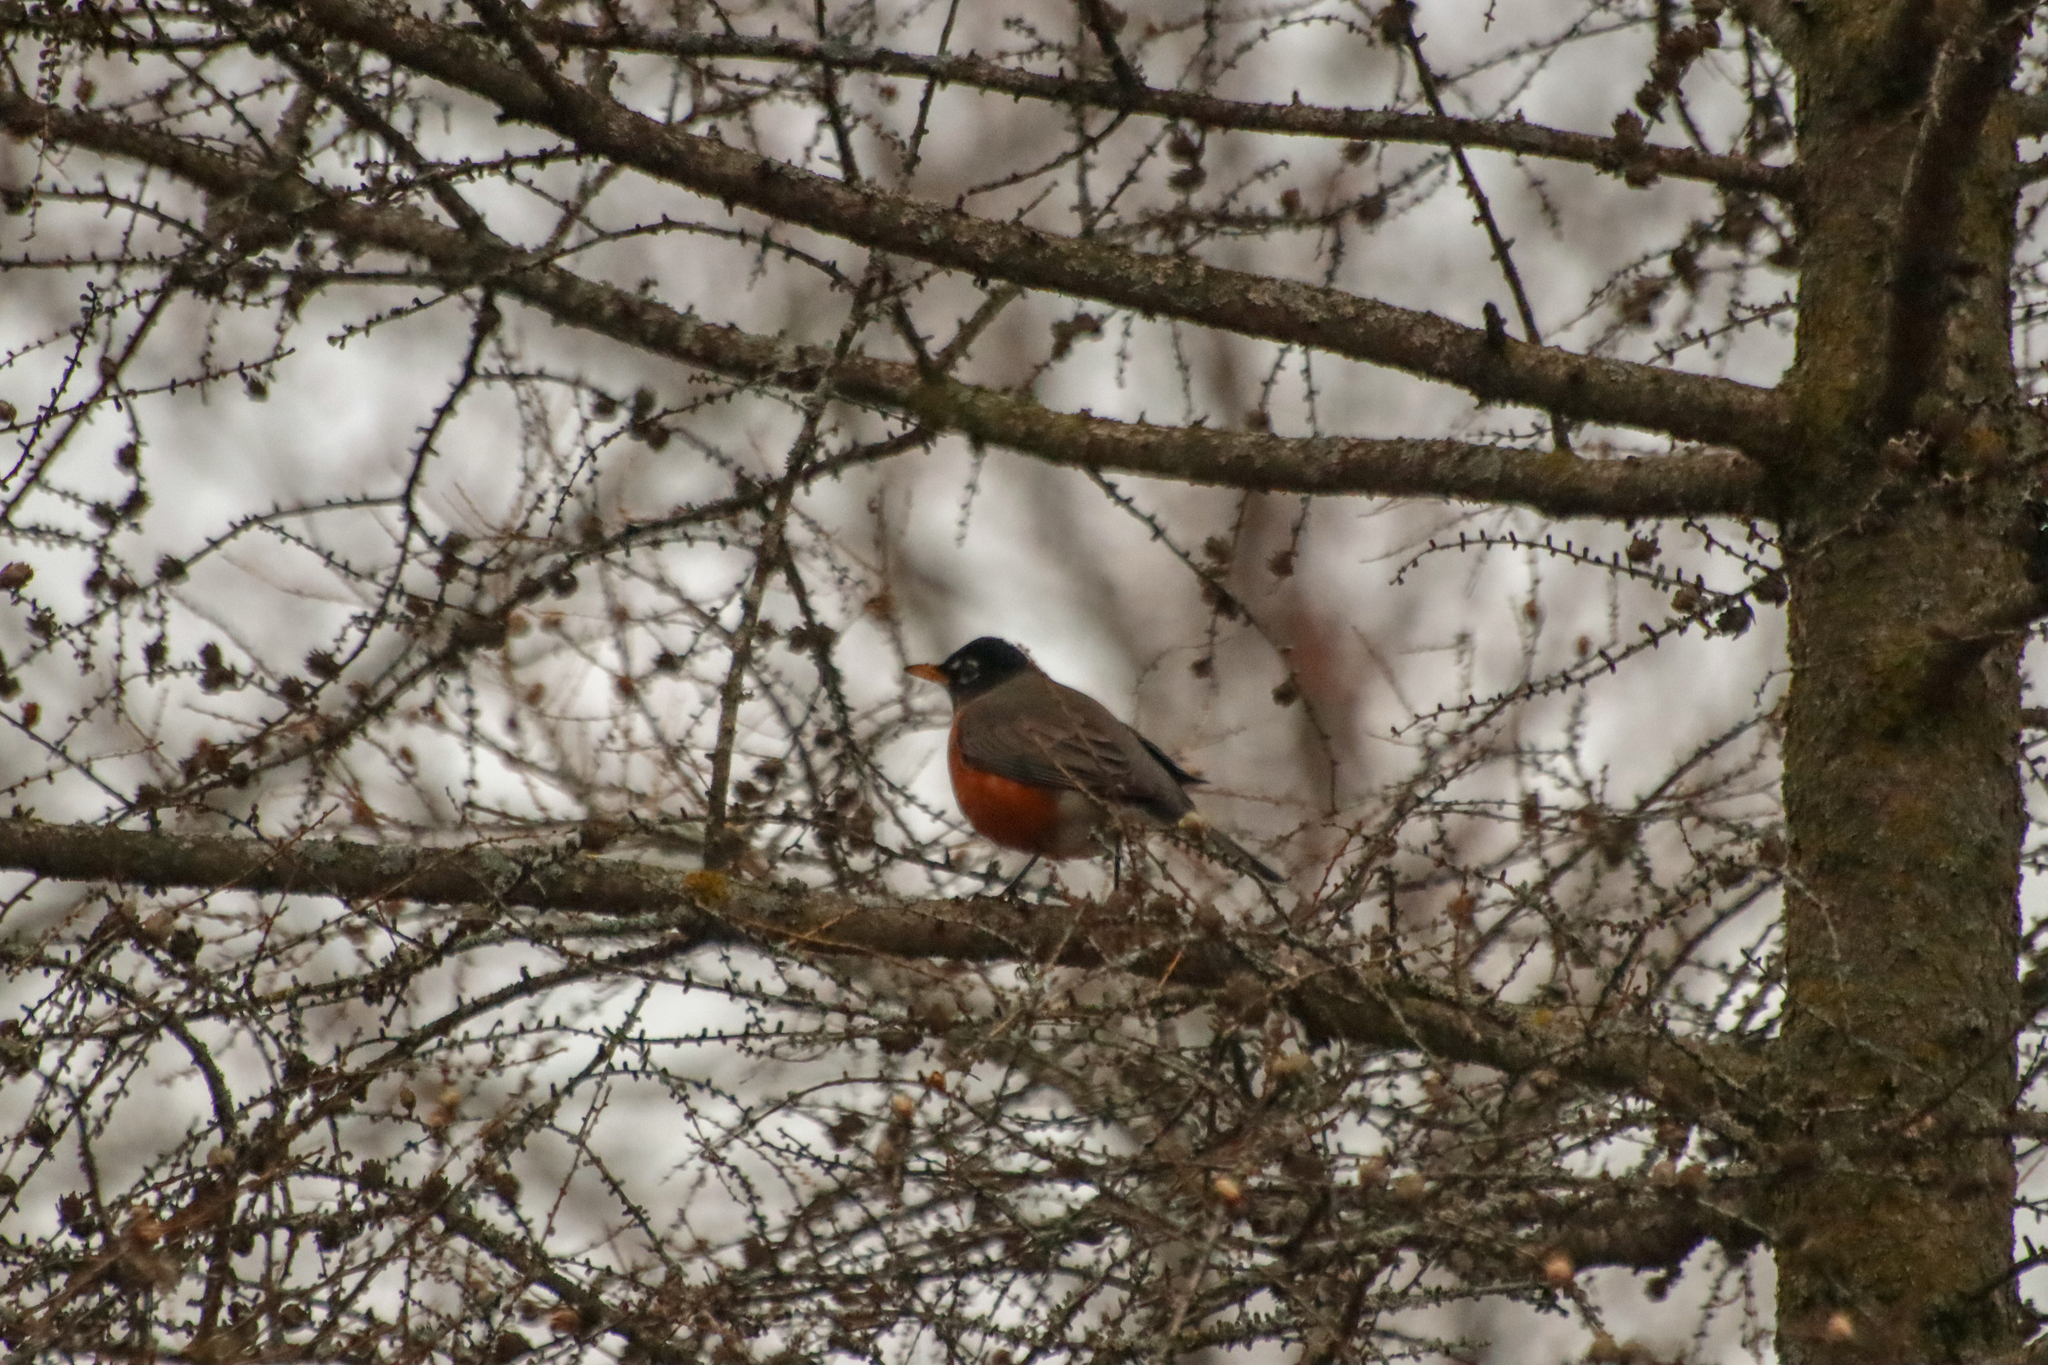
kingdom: Animalia
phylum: Chordata
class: Aves
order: Passeriformes
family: Turdidae
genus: Turdus
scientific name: Turdus migratorius
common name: American robin
